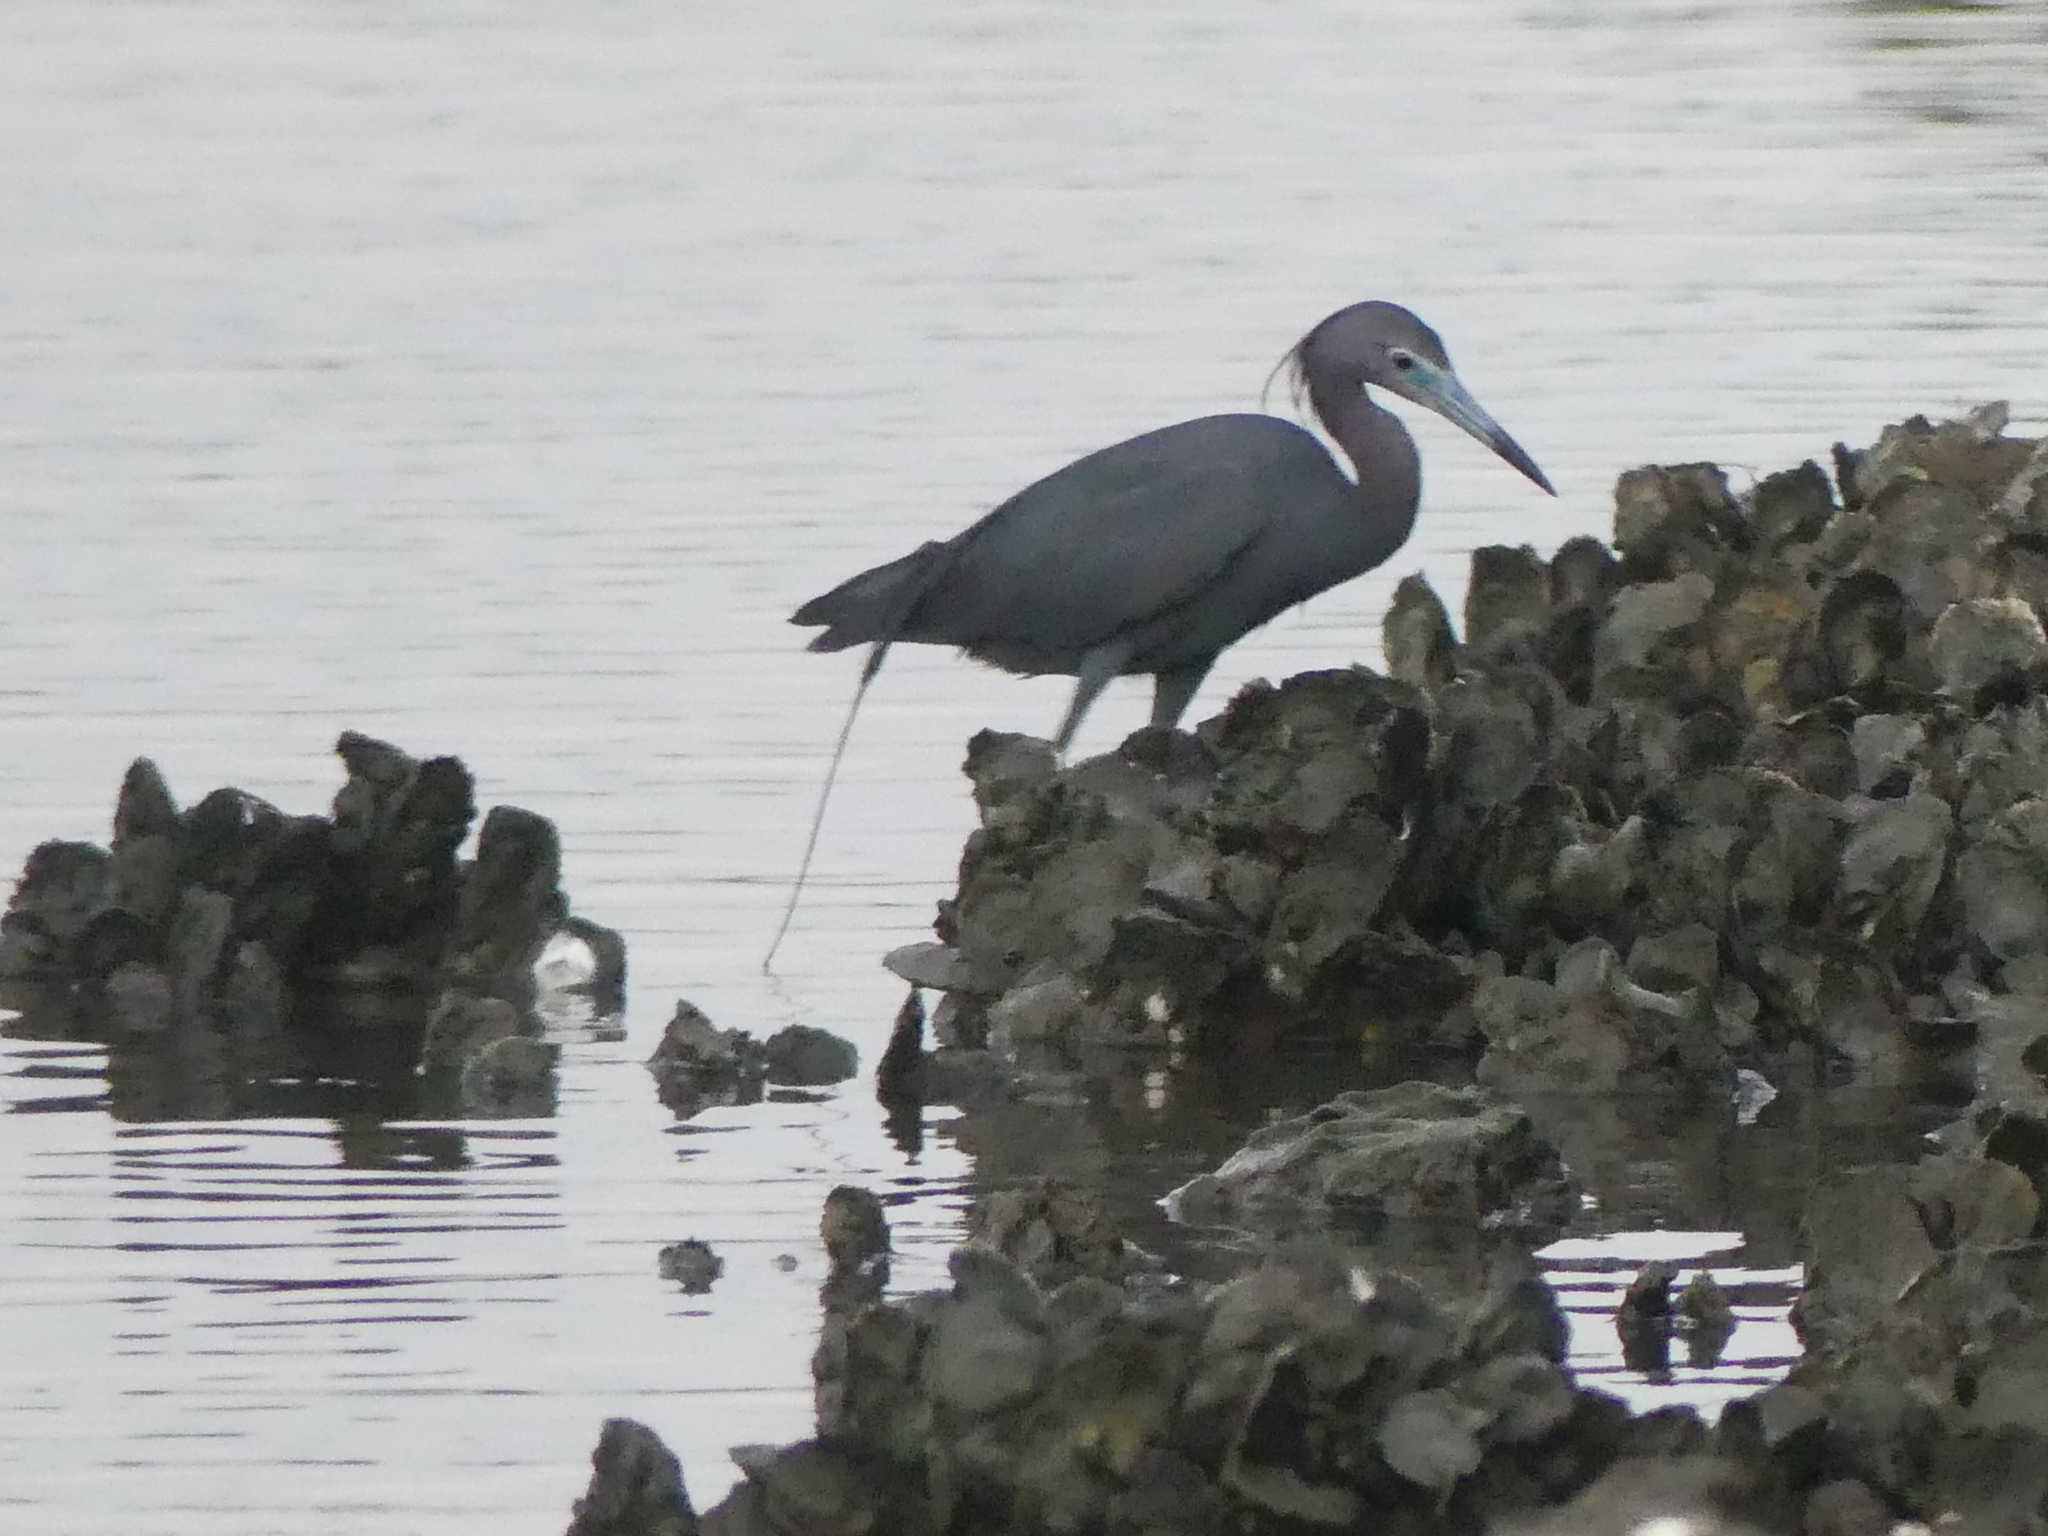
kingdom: Animalia
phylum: Chordata
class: Aves
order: Pelecaniformes
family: Ardeidae
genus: Egretta
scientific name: Egretta caerulea
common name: Little blue heron
